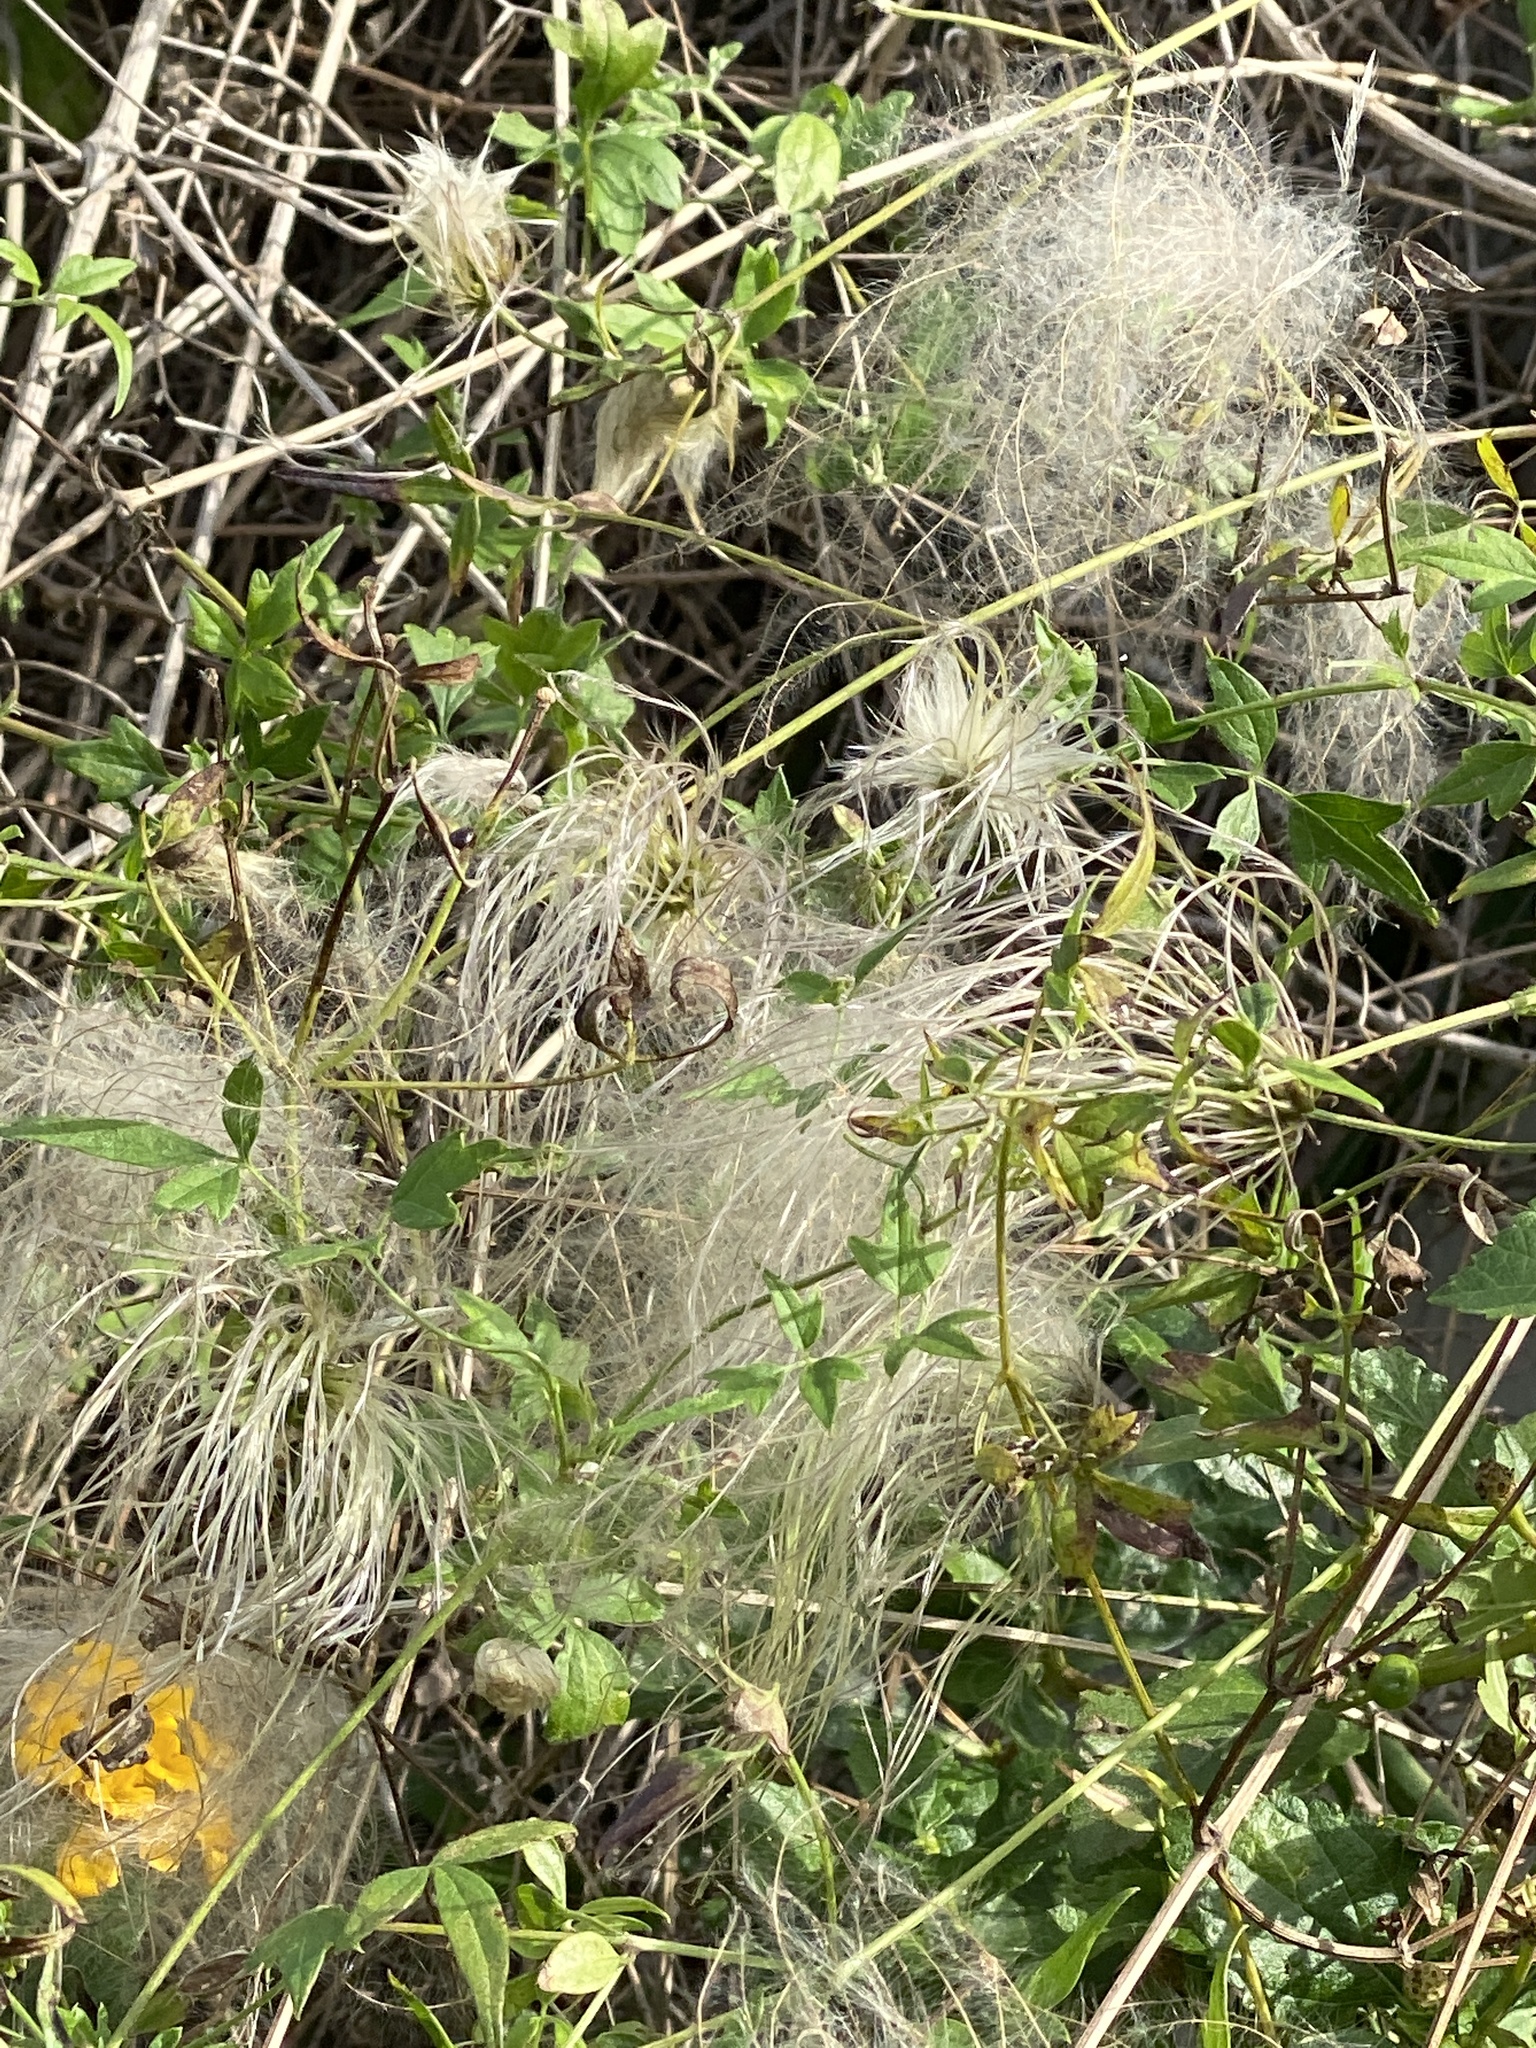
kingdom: Plantae
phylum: Tracheophyta
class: Magnoliopsida
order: Ranunculales
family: Ranunculaceae
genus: Clematis
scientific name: Clematis drummondii
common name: Texas virgin's bower
